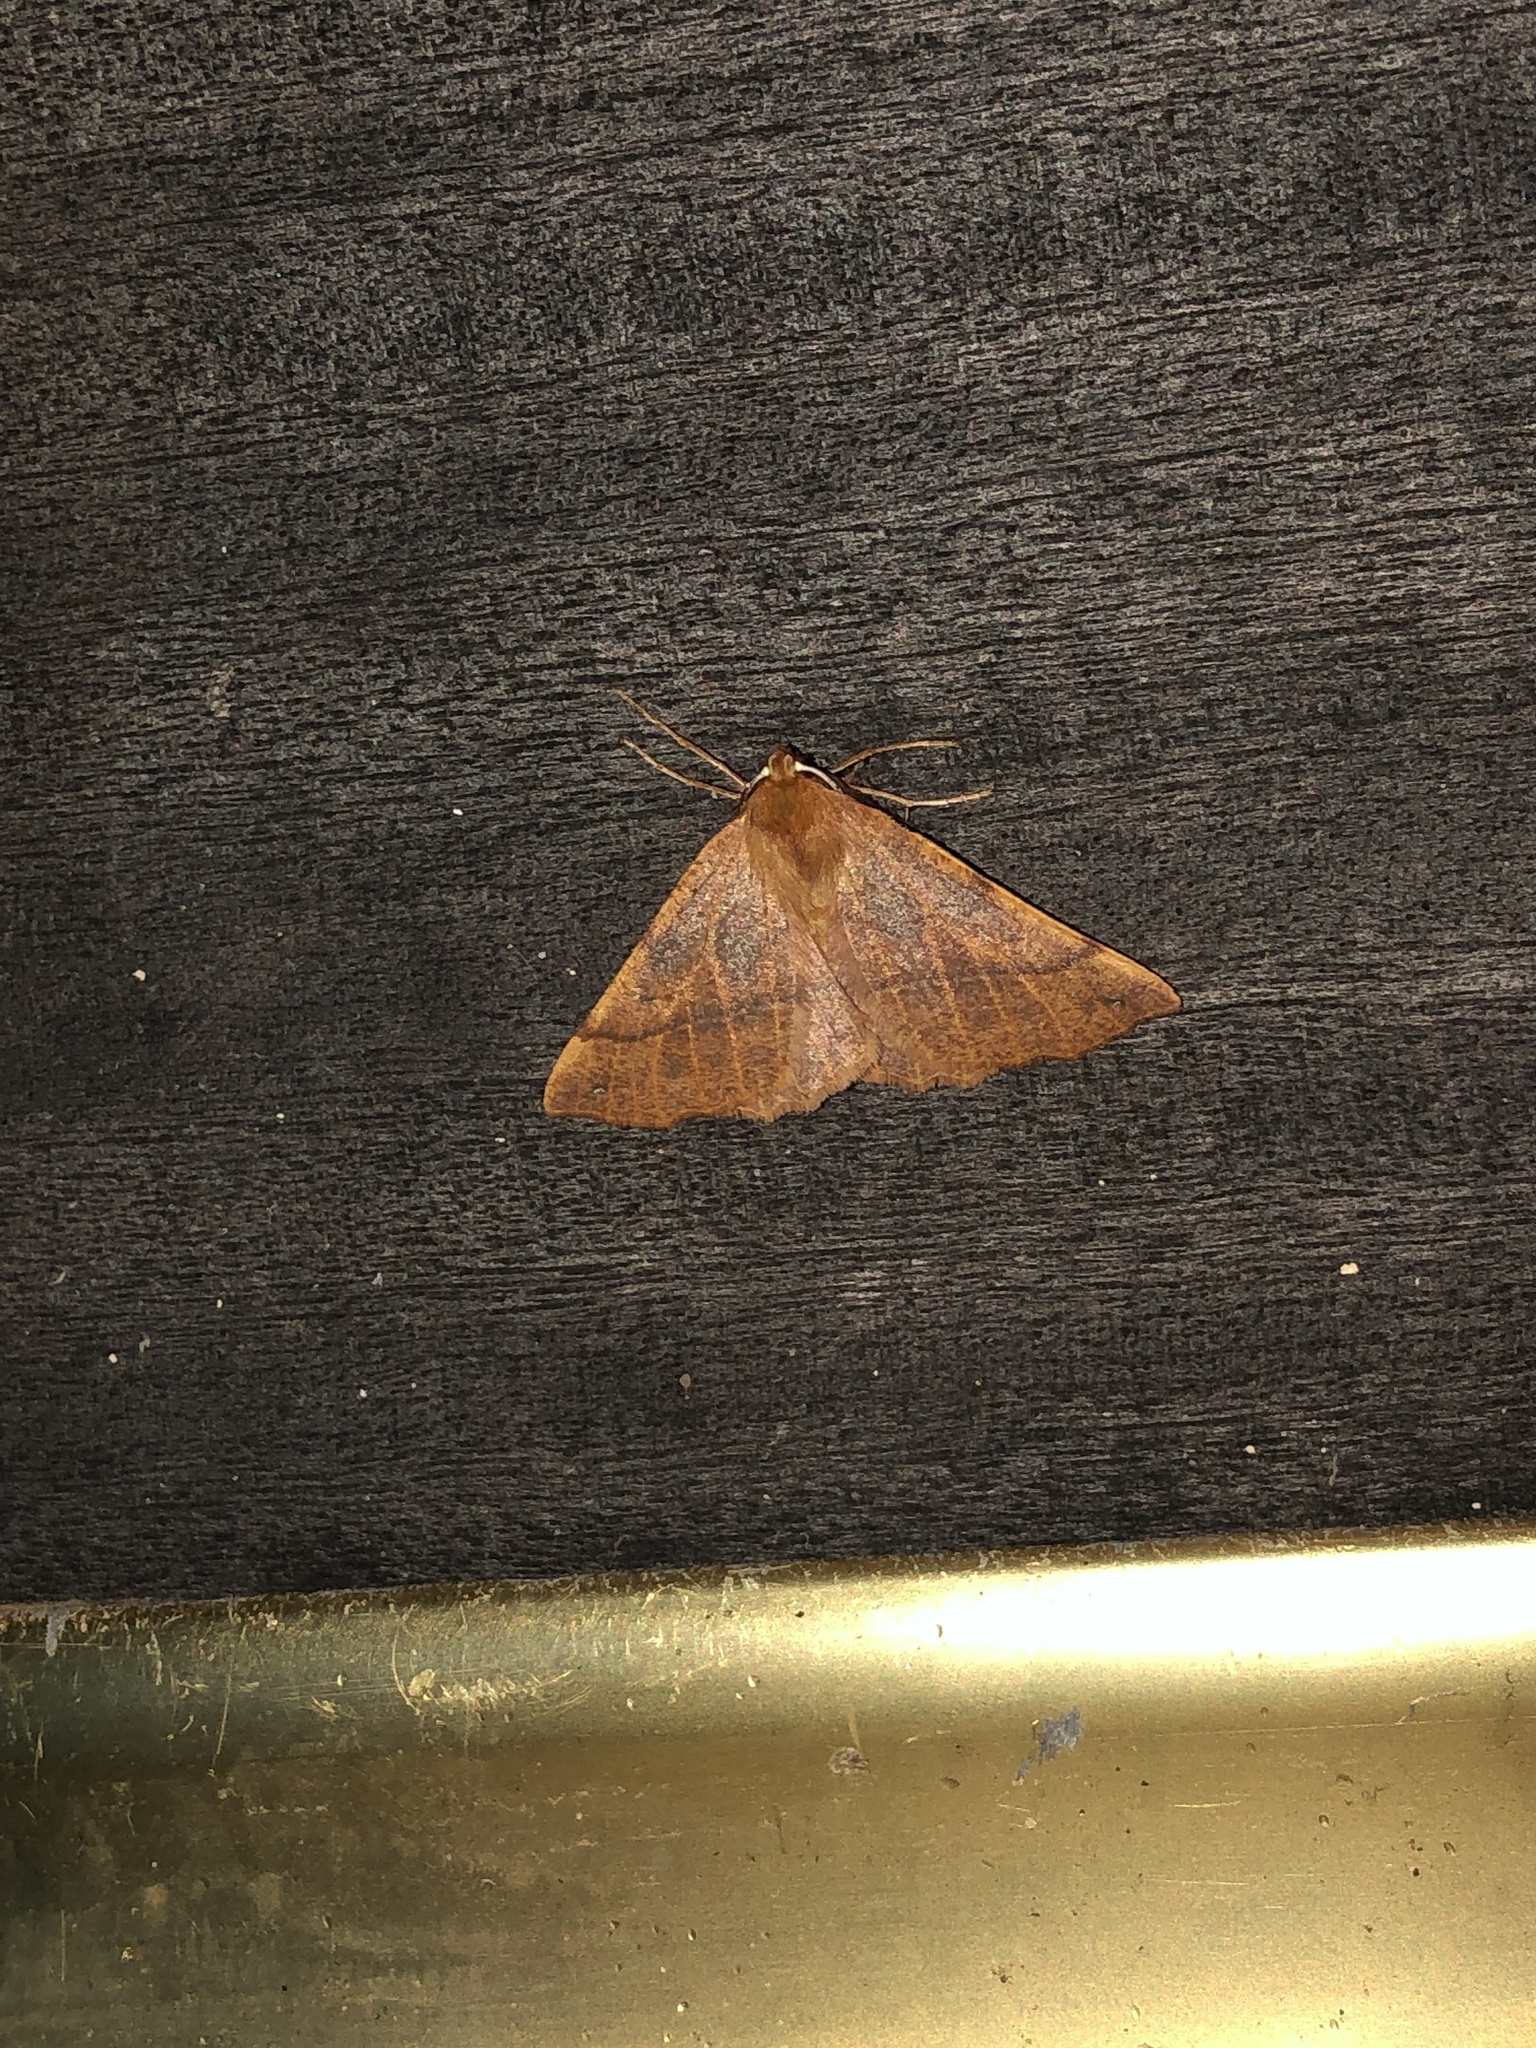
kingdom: Animalia
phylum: Arthropoda
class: Insecta
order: Lepidoptera
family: Geometridae
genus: Colotois
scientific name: Colotois pennaria
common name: Feathered thorn
